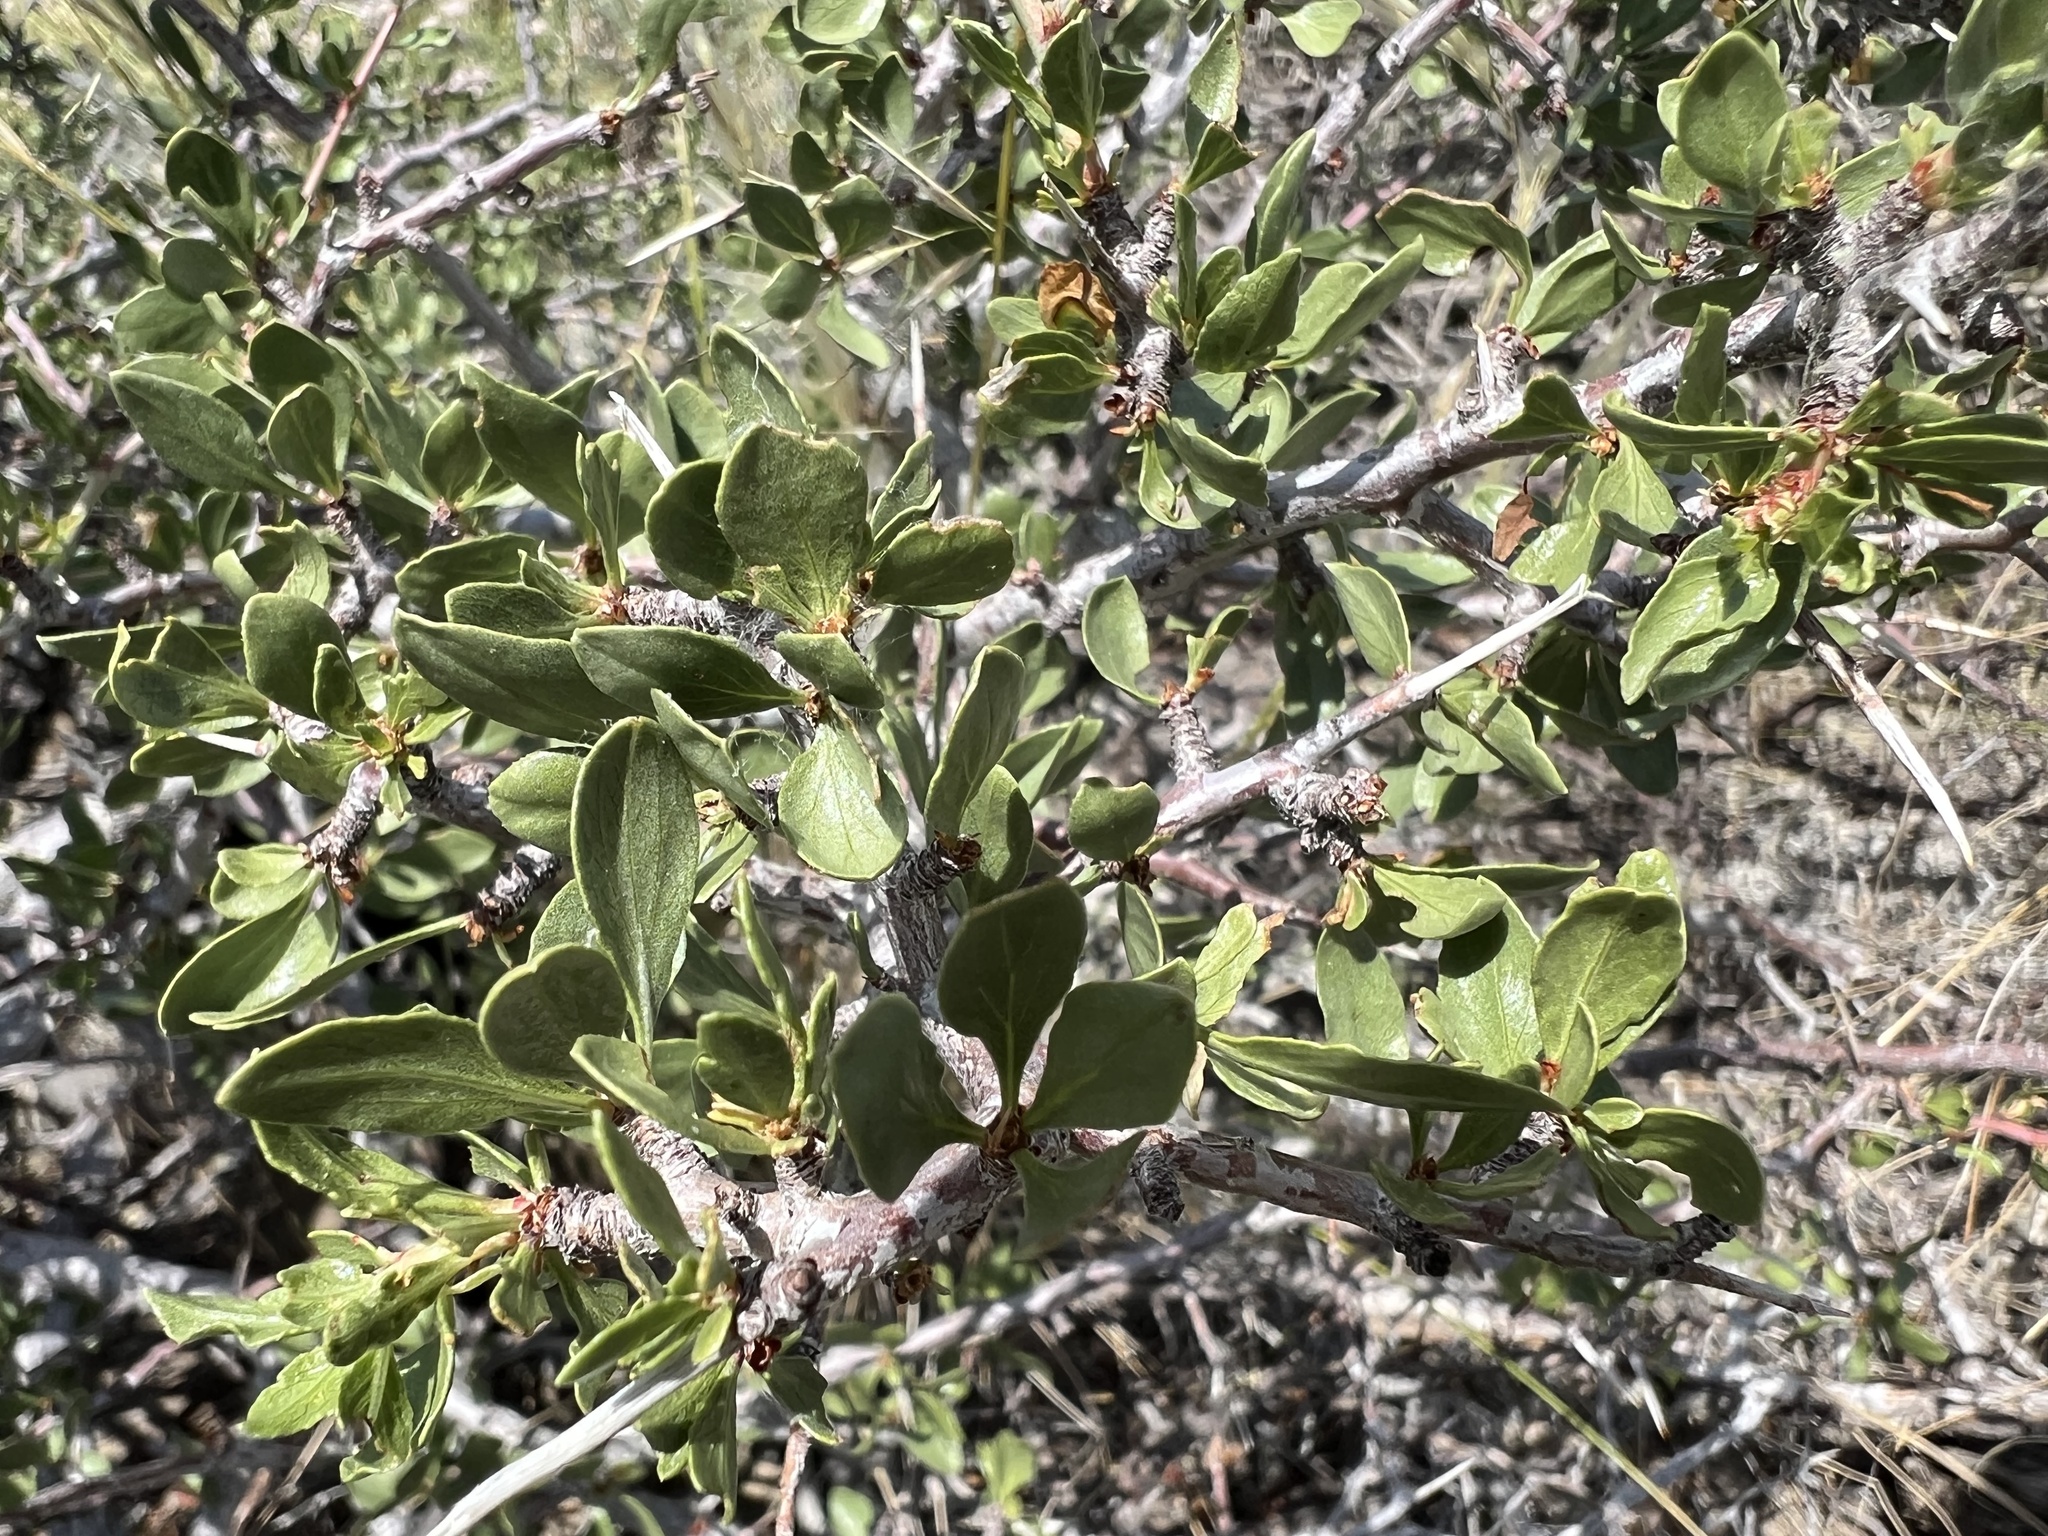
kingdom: Plantae
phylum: Tracheophyta
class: Magnoliopsida
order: Rosales
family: Rosaceae
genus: Prunus
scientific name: Prunus andersonii
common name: Desert peach
